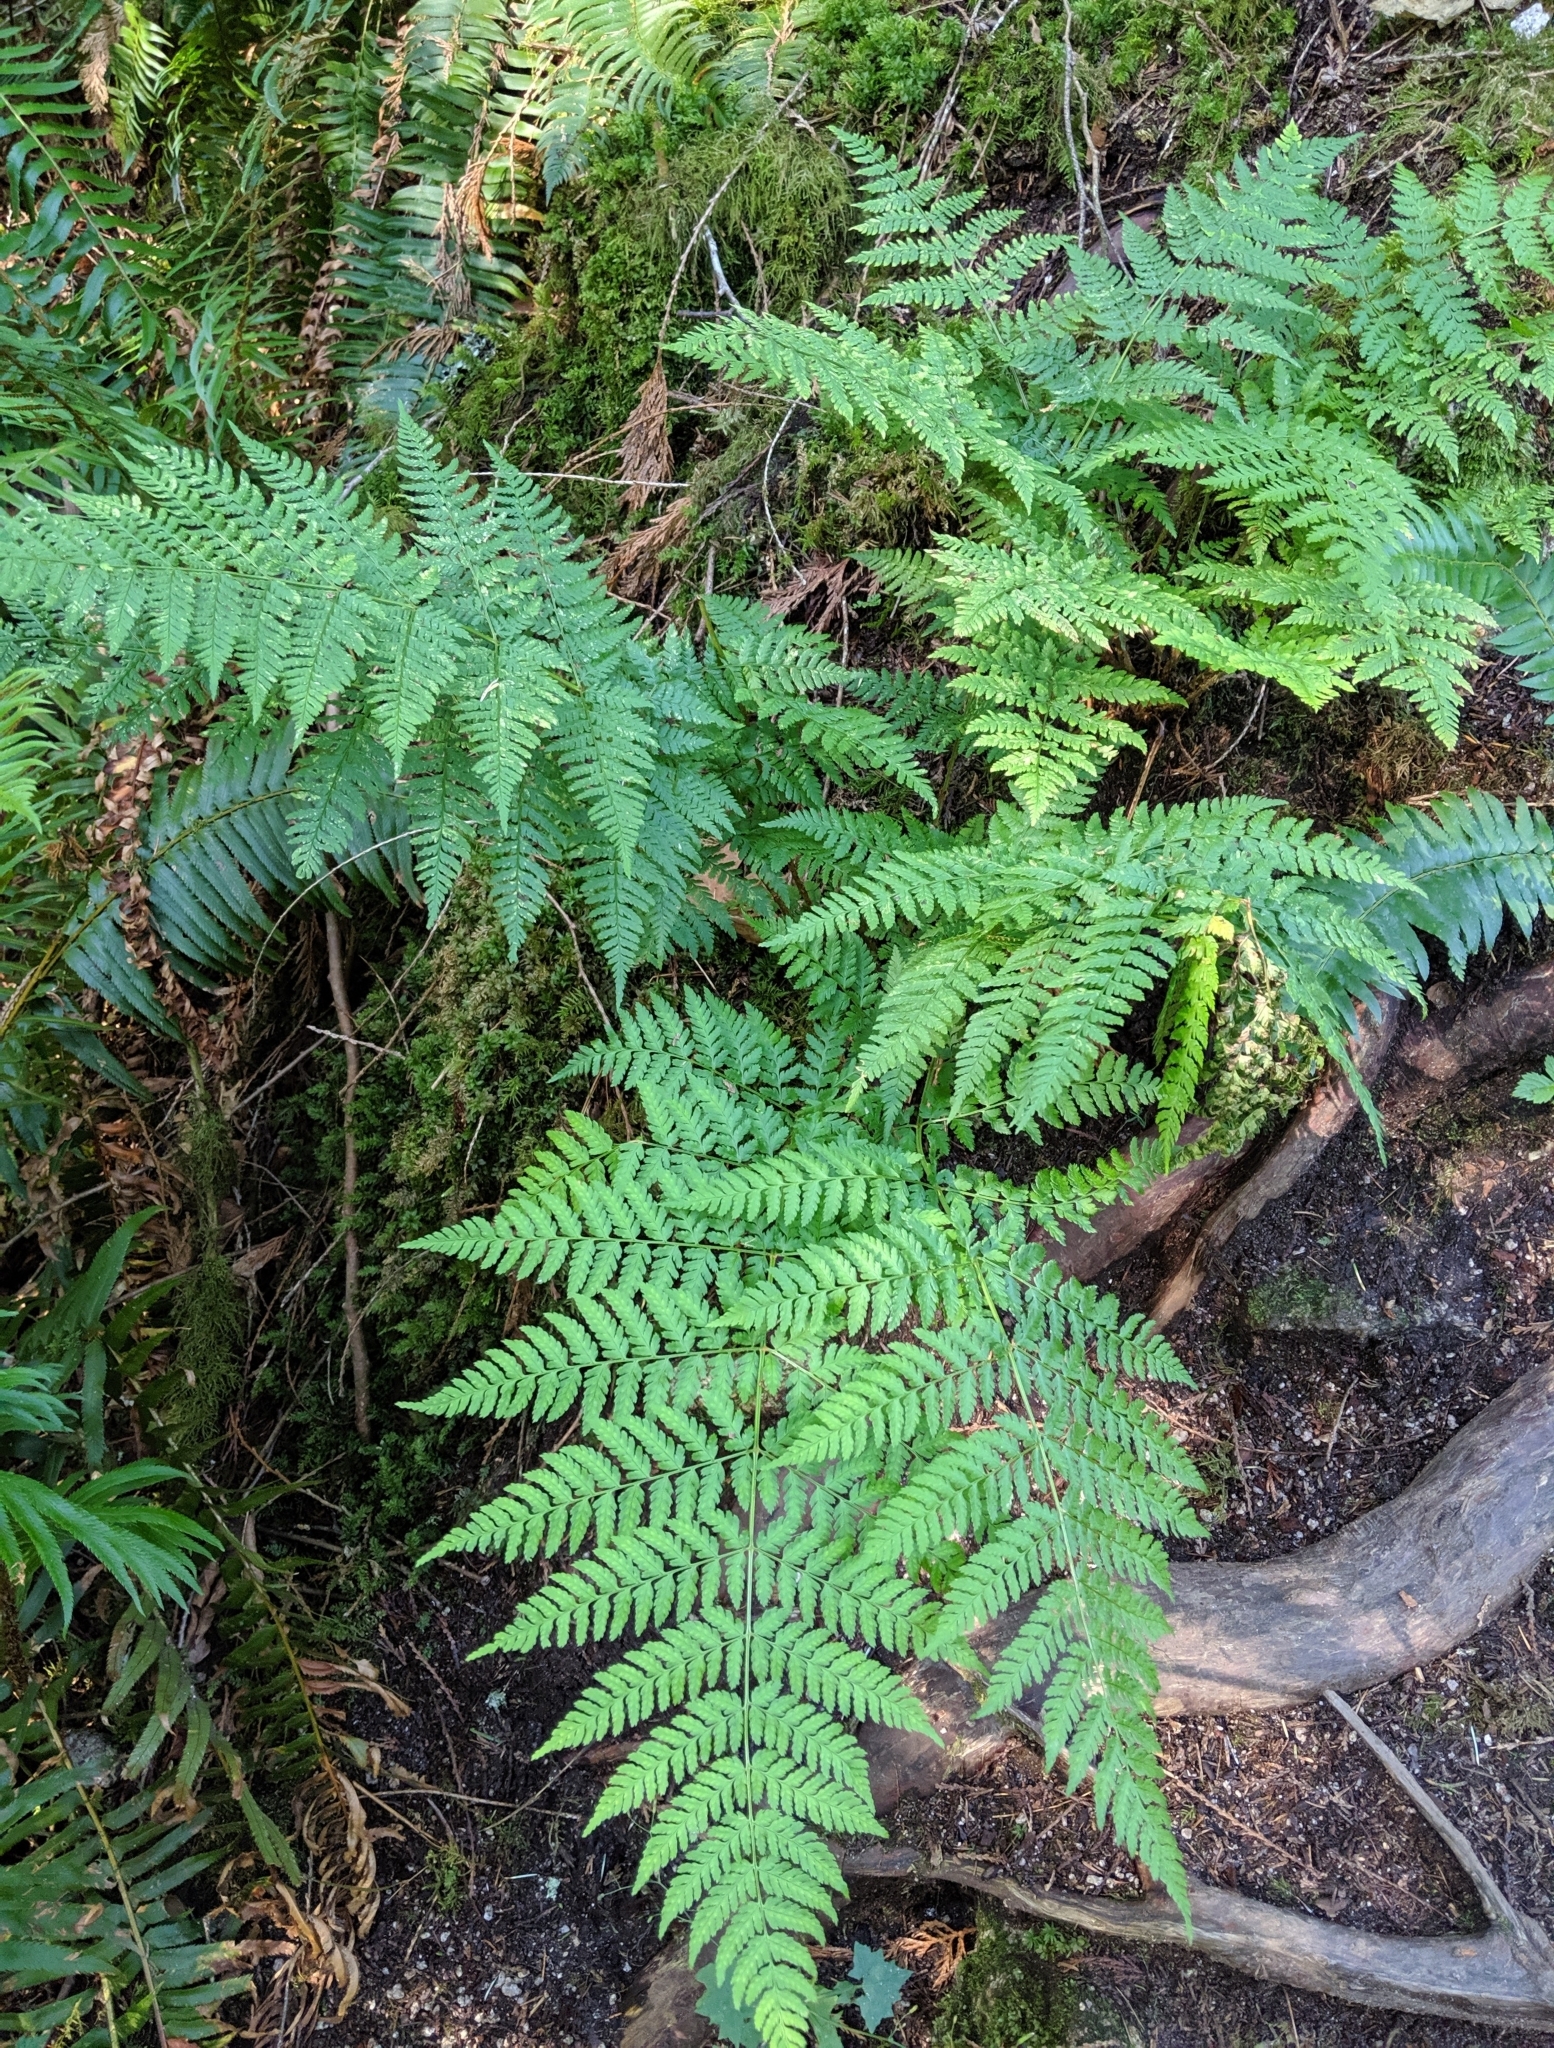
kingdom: Plantae
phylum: Tracheophyta
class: Polypodiopsida
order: Polypodiales
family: Dryopteridaceae
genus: Dryopteris
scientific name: Dryopteris expansa
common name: Northern buckler fern
